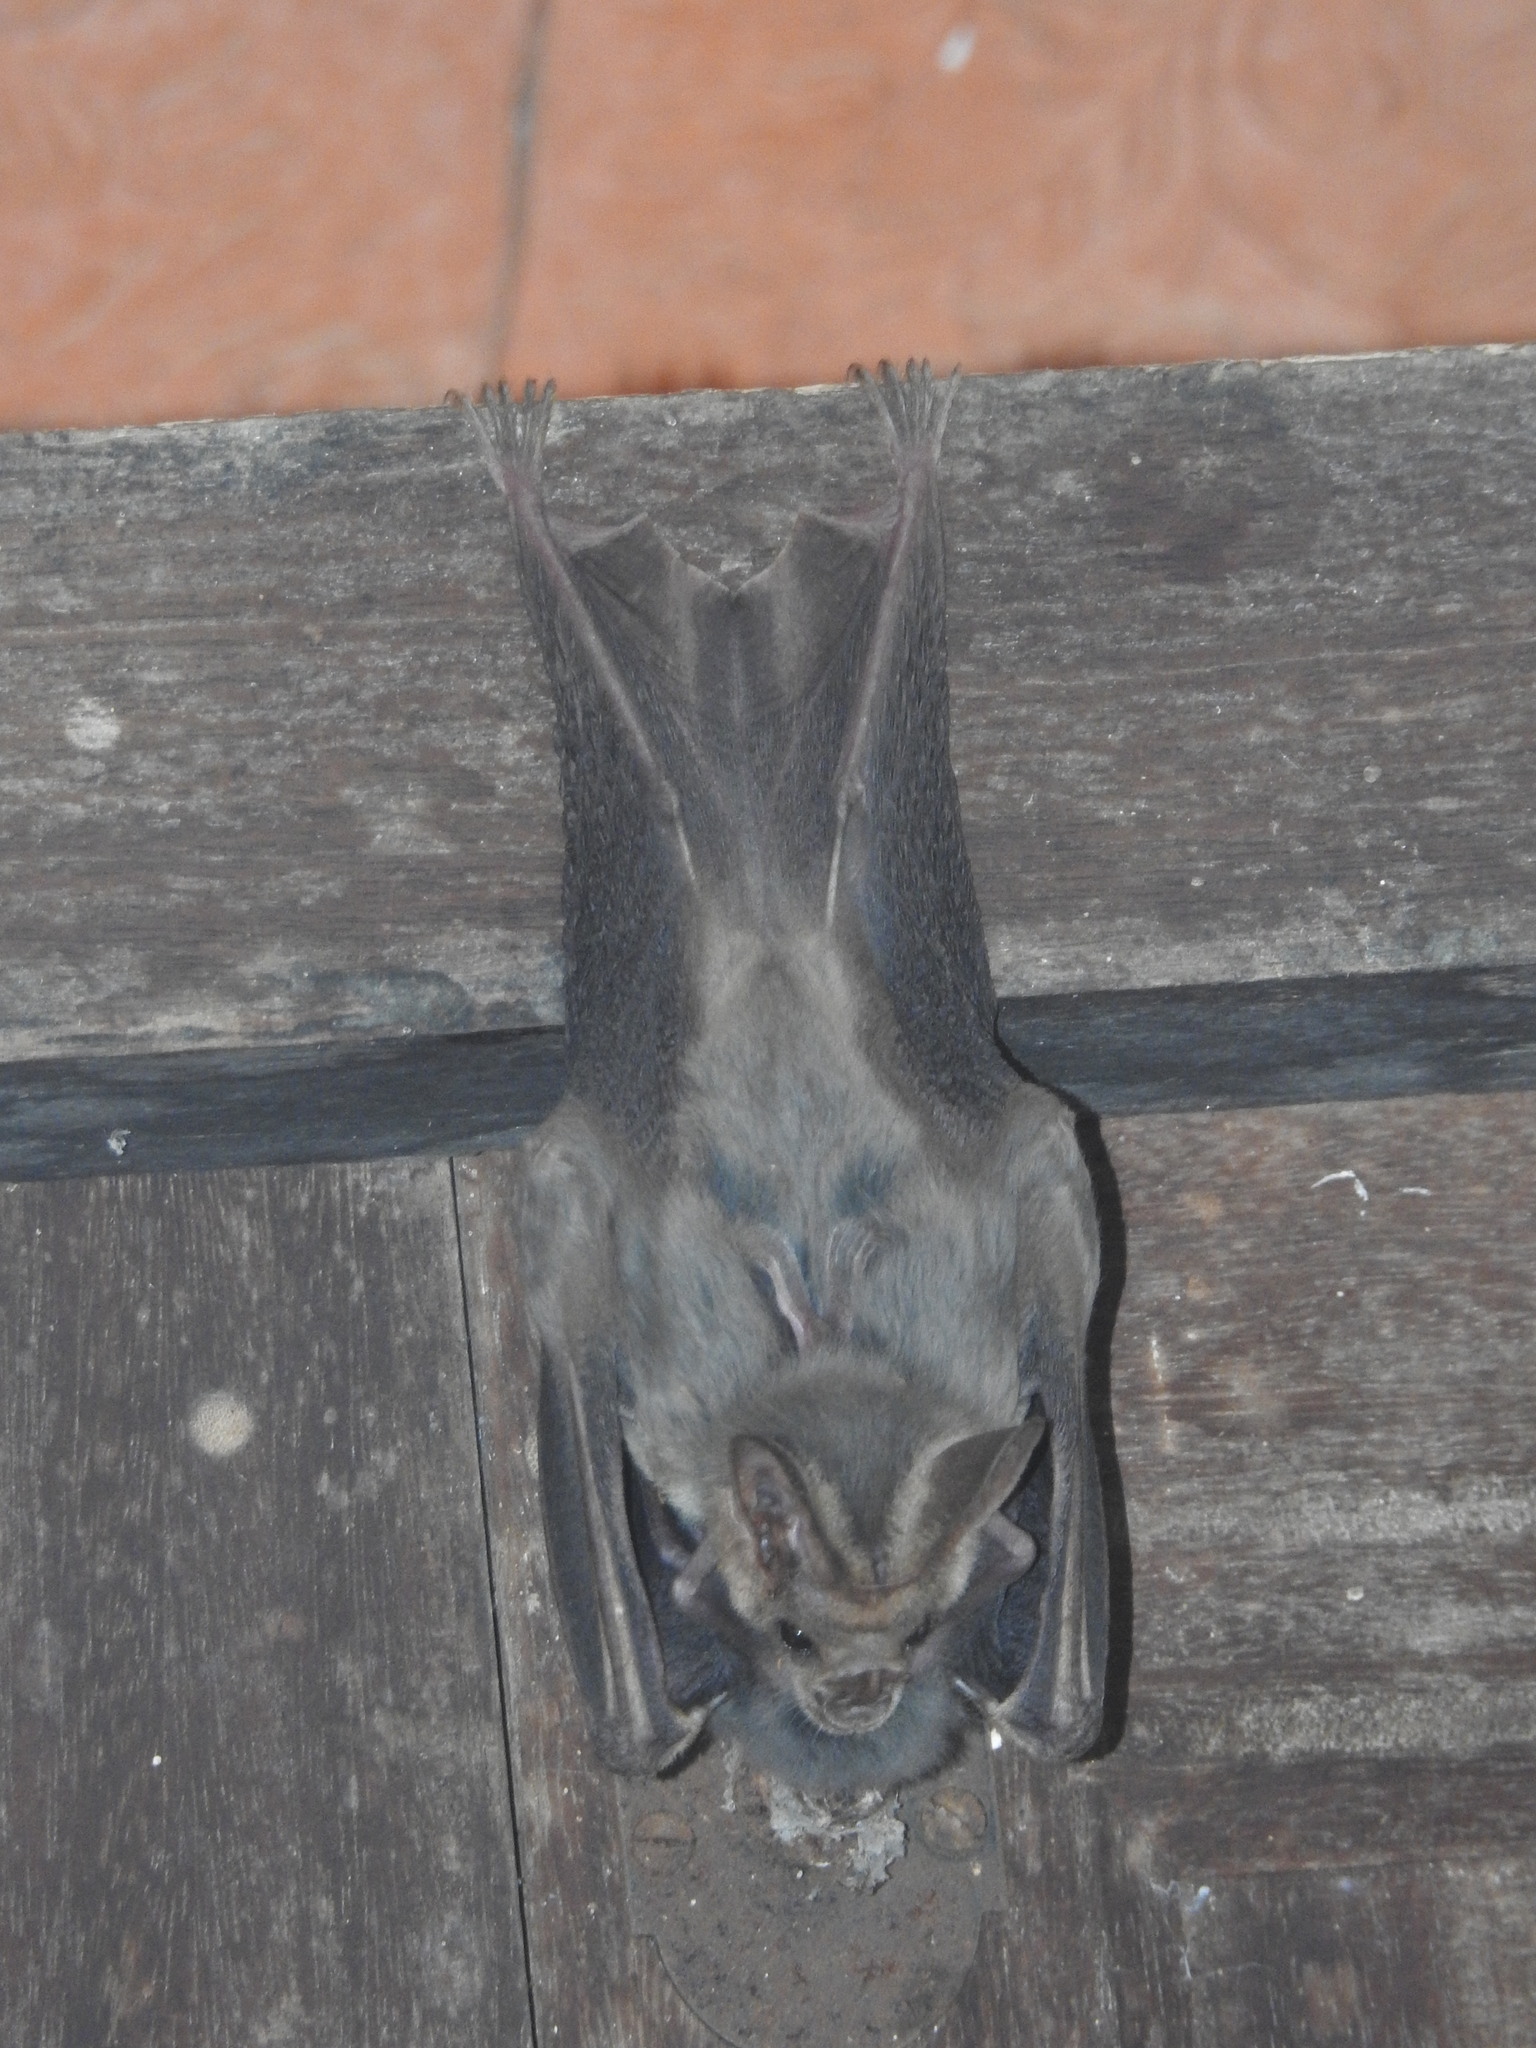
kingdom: Animalia
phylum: Chordata
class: Mammalia
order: Chiroptera
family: Megadermatidae
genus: Lyroderma
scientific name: Lyroderma lyra
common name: Greater false vampire bat
